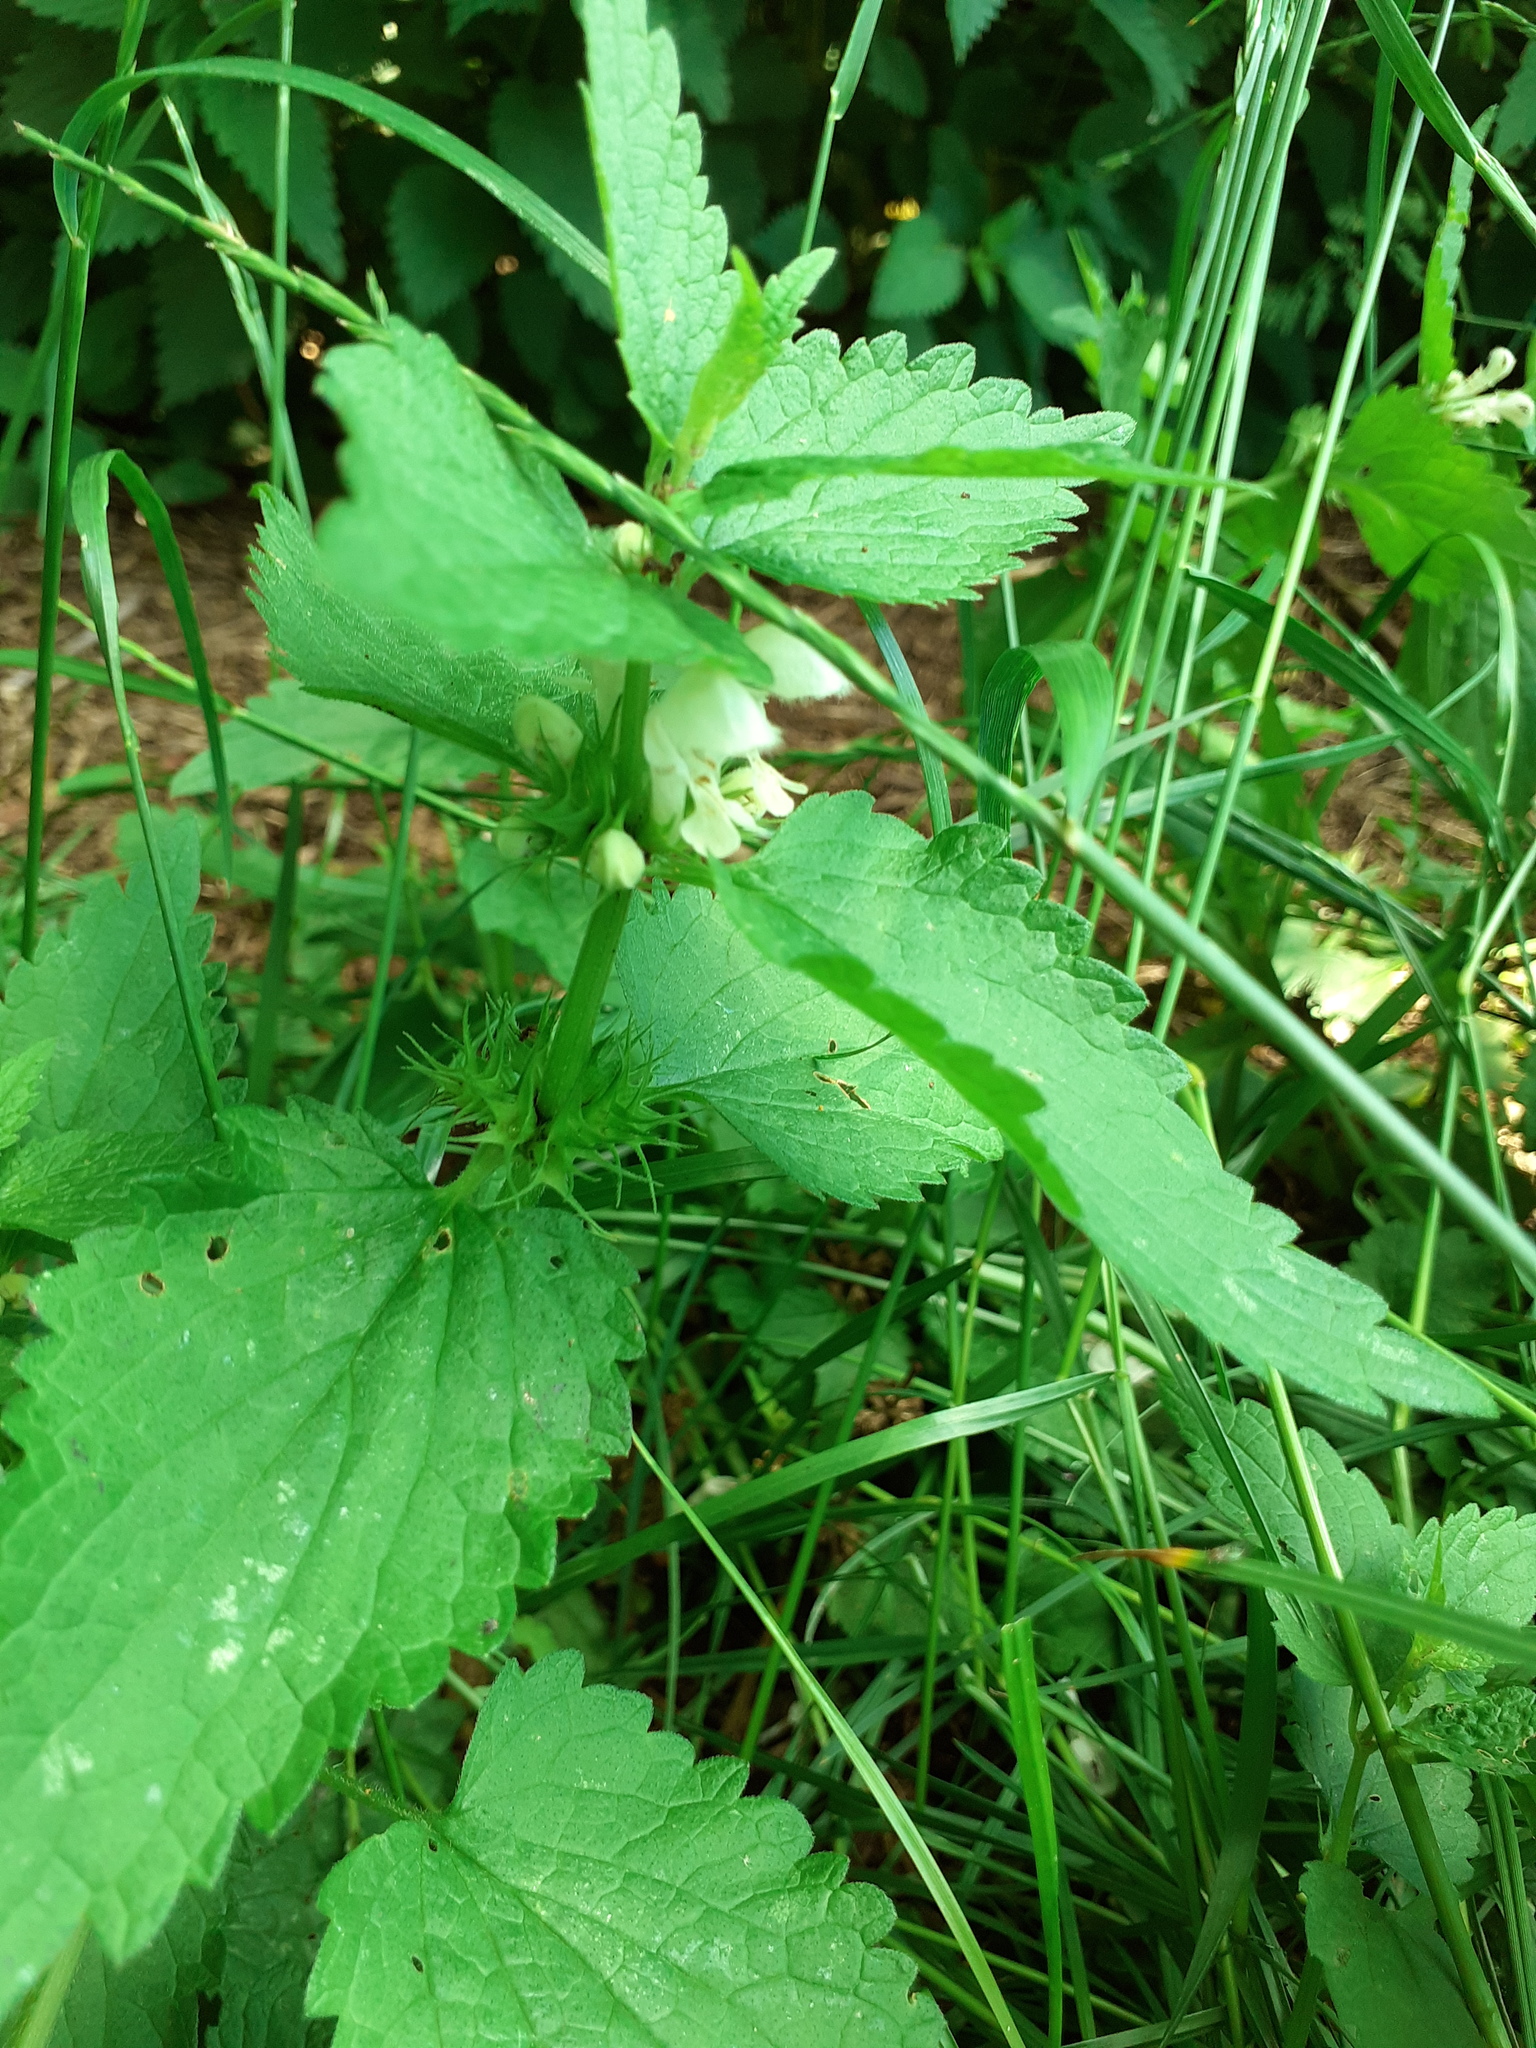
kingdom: Plantae
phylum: Tracheophyta
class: Magnoliopsida
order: Lamiales
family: Lamiaceae
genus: Lamium
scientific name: Lamium album
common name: White dead-nettle
